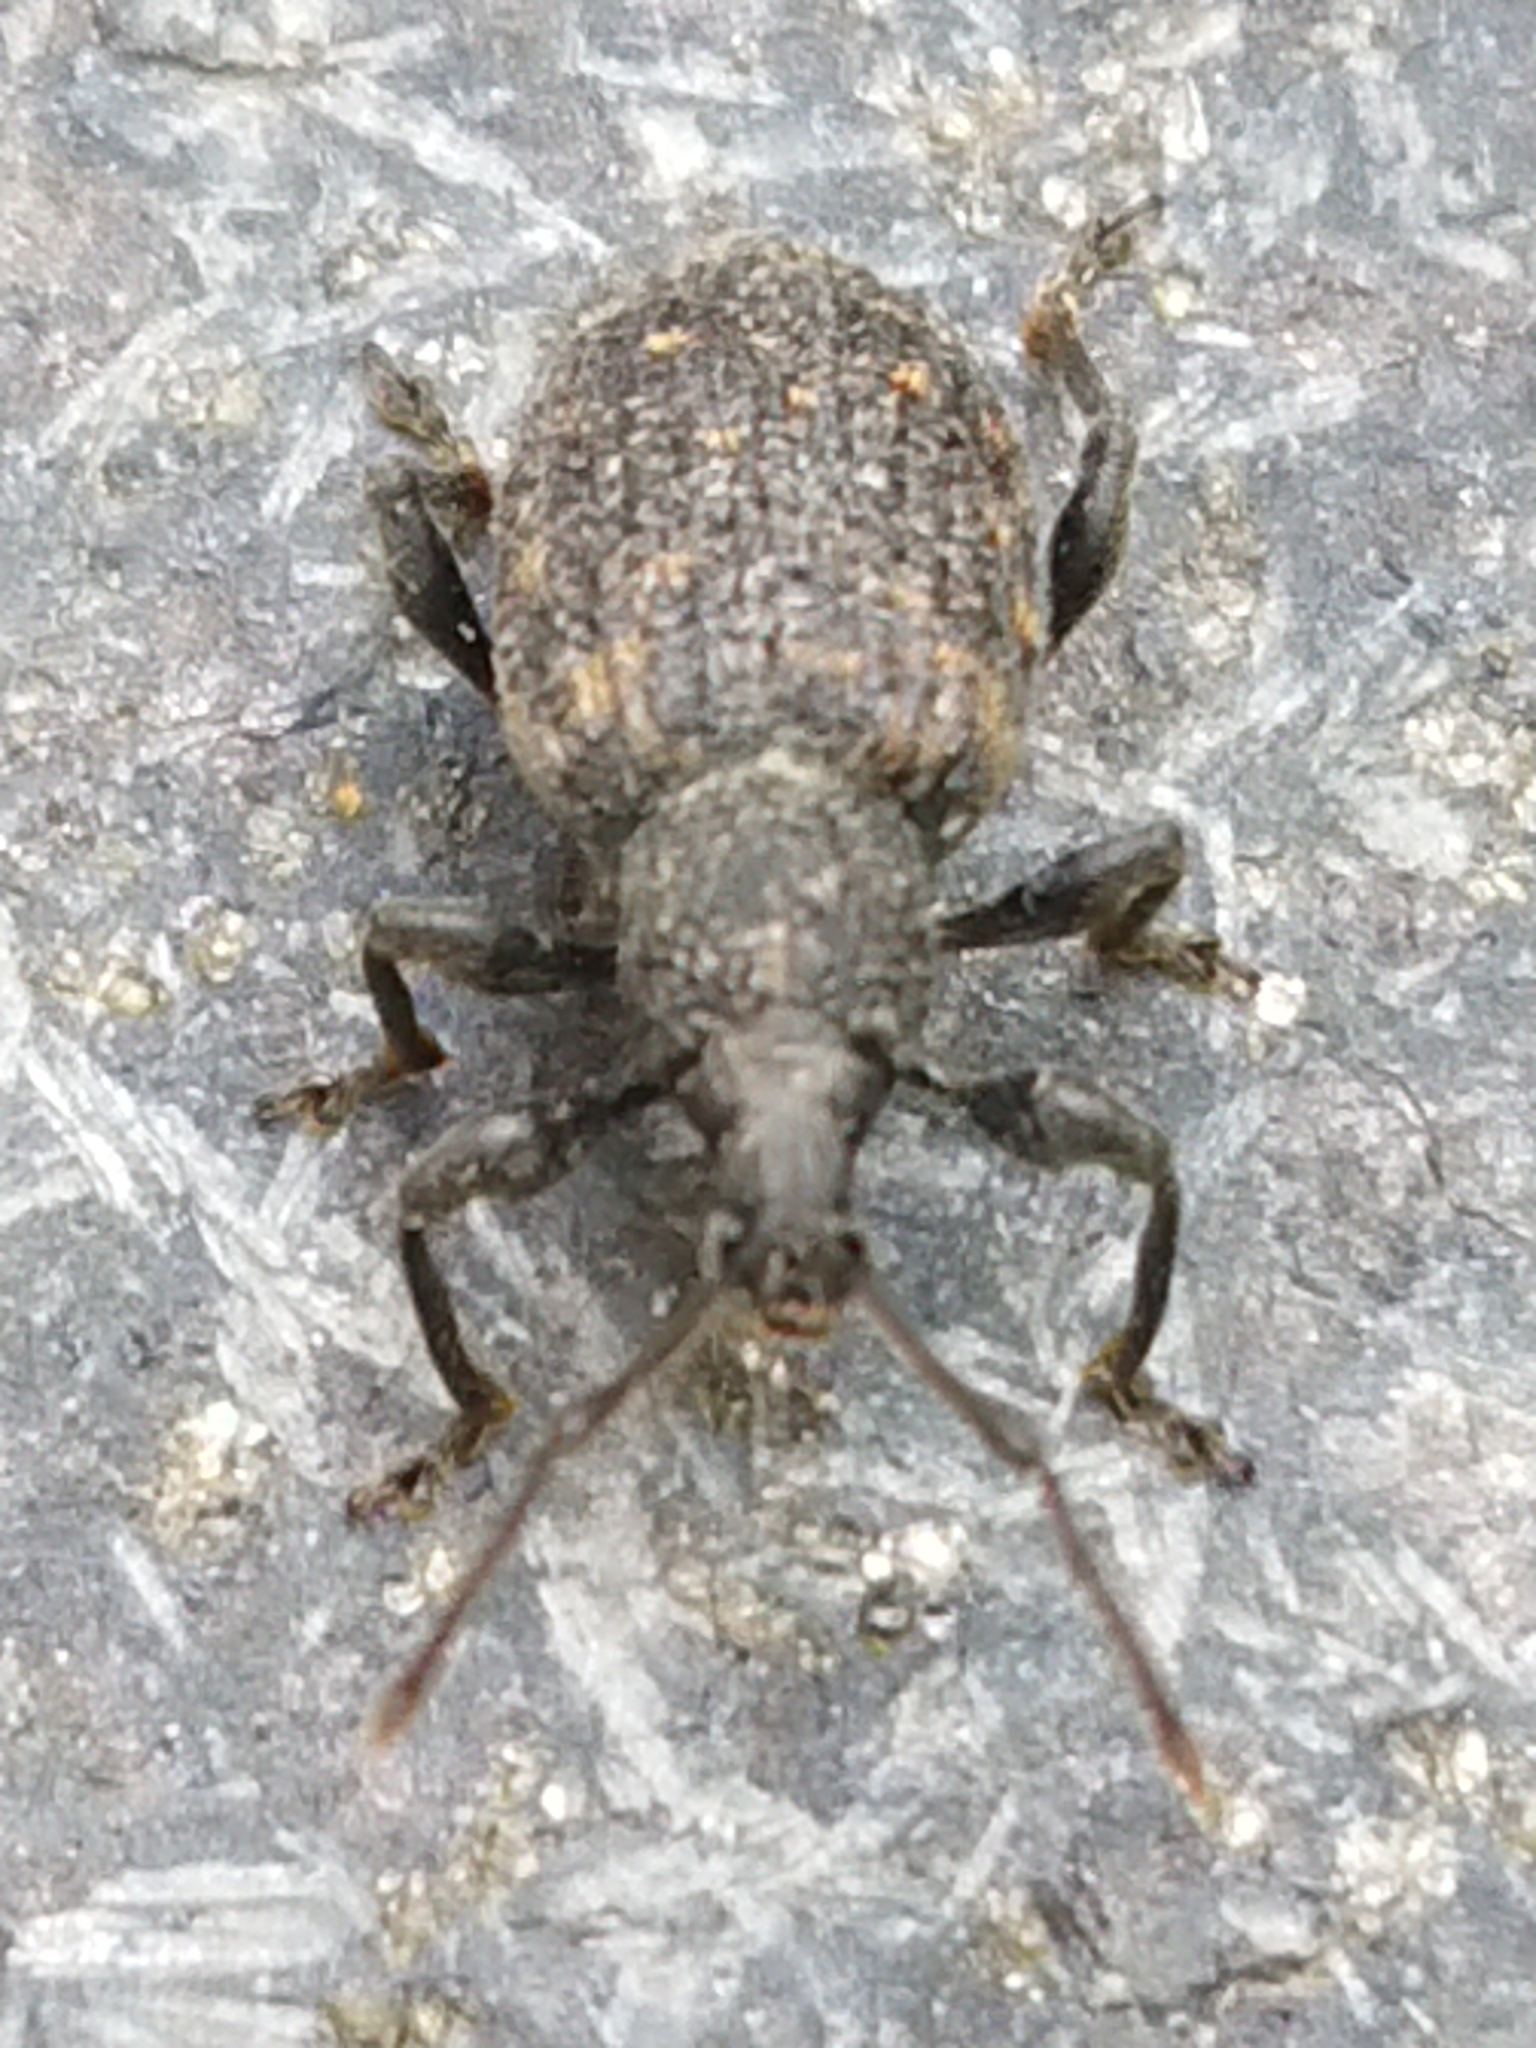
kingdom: Animalia
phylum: Arthropoda
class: Insecta
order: Coleoptera
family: Curculionidae
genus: Otiorhynchus
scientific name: Otiorhynchus sulcatus
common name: Black vine weevil
